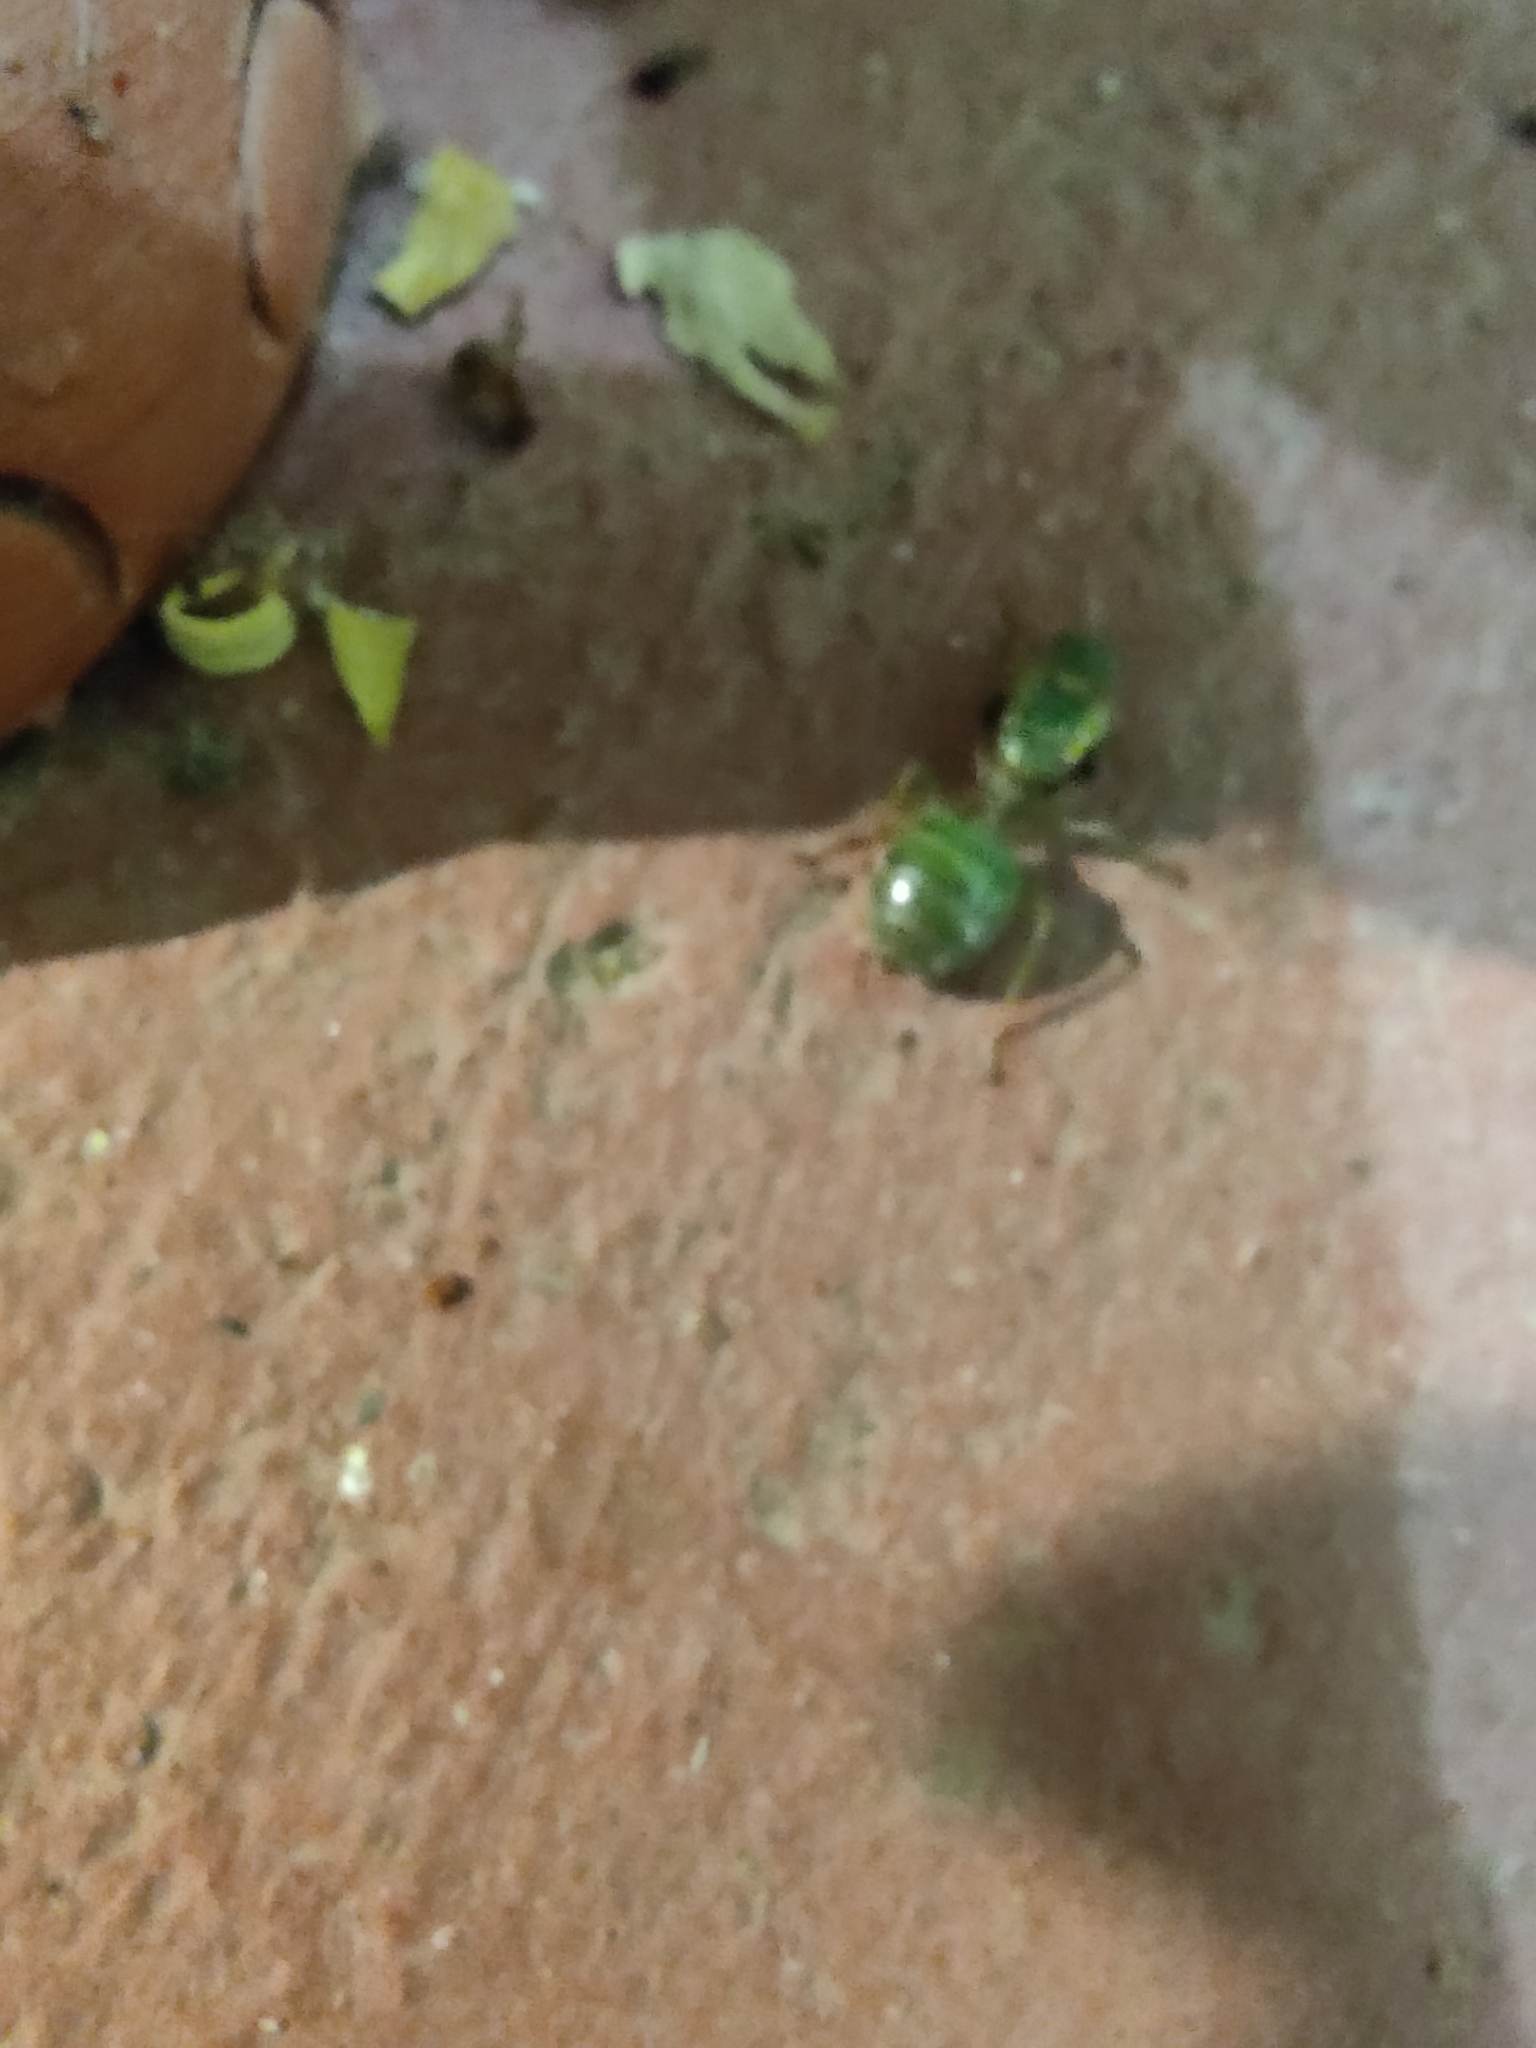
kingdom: Animalia
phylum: Arthropoda
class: Insecta
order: Hymenoptera
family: Formicidae
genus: Oecophylla
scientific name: Oecophylla smaragdina
